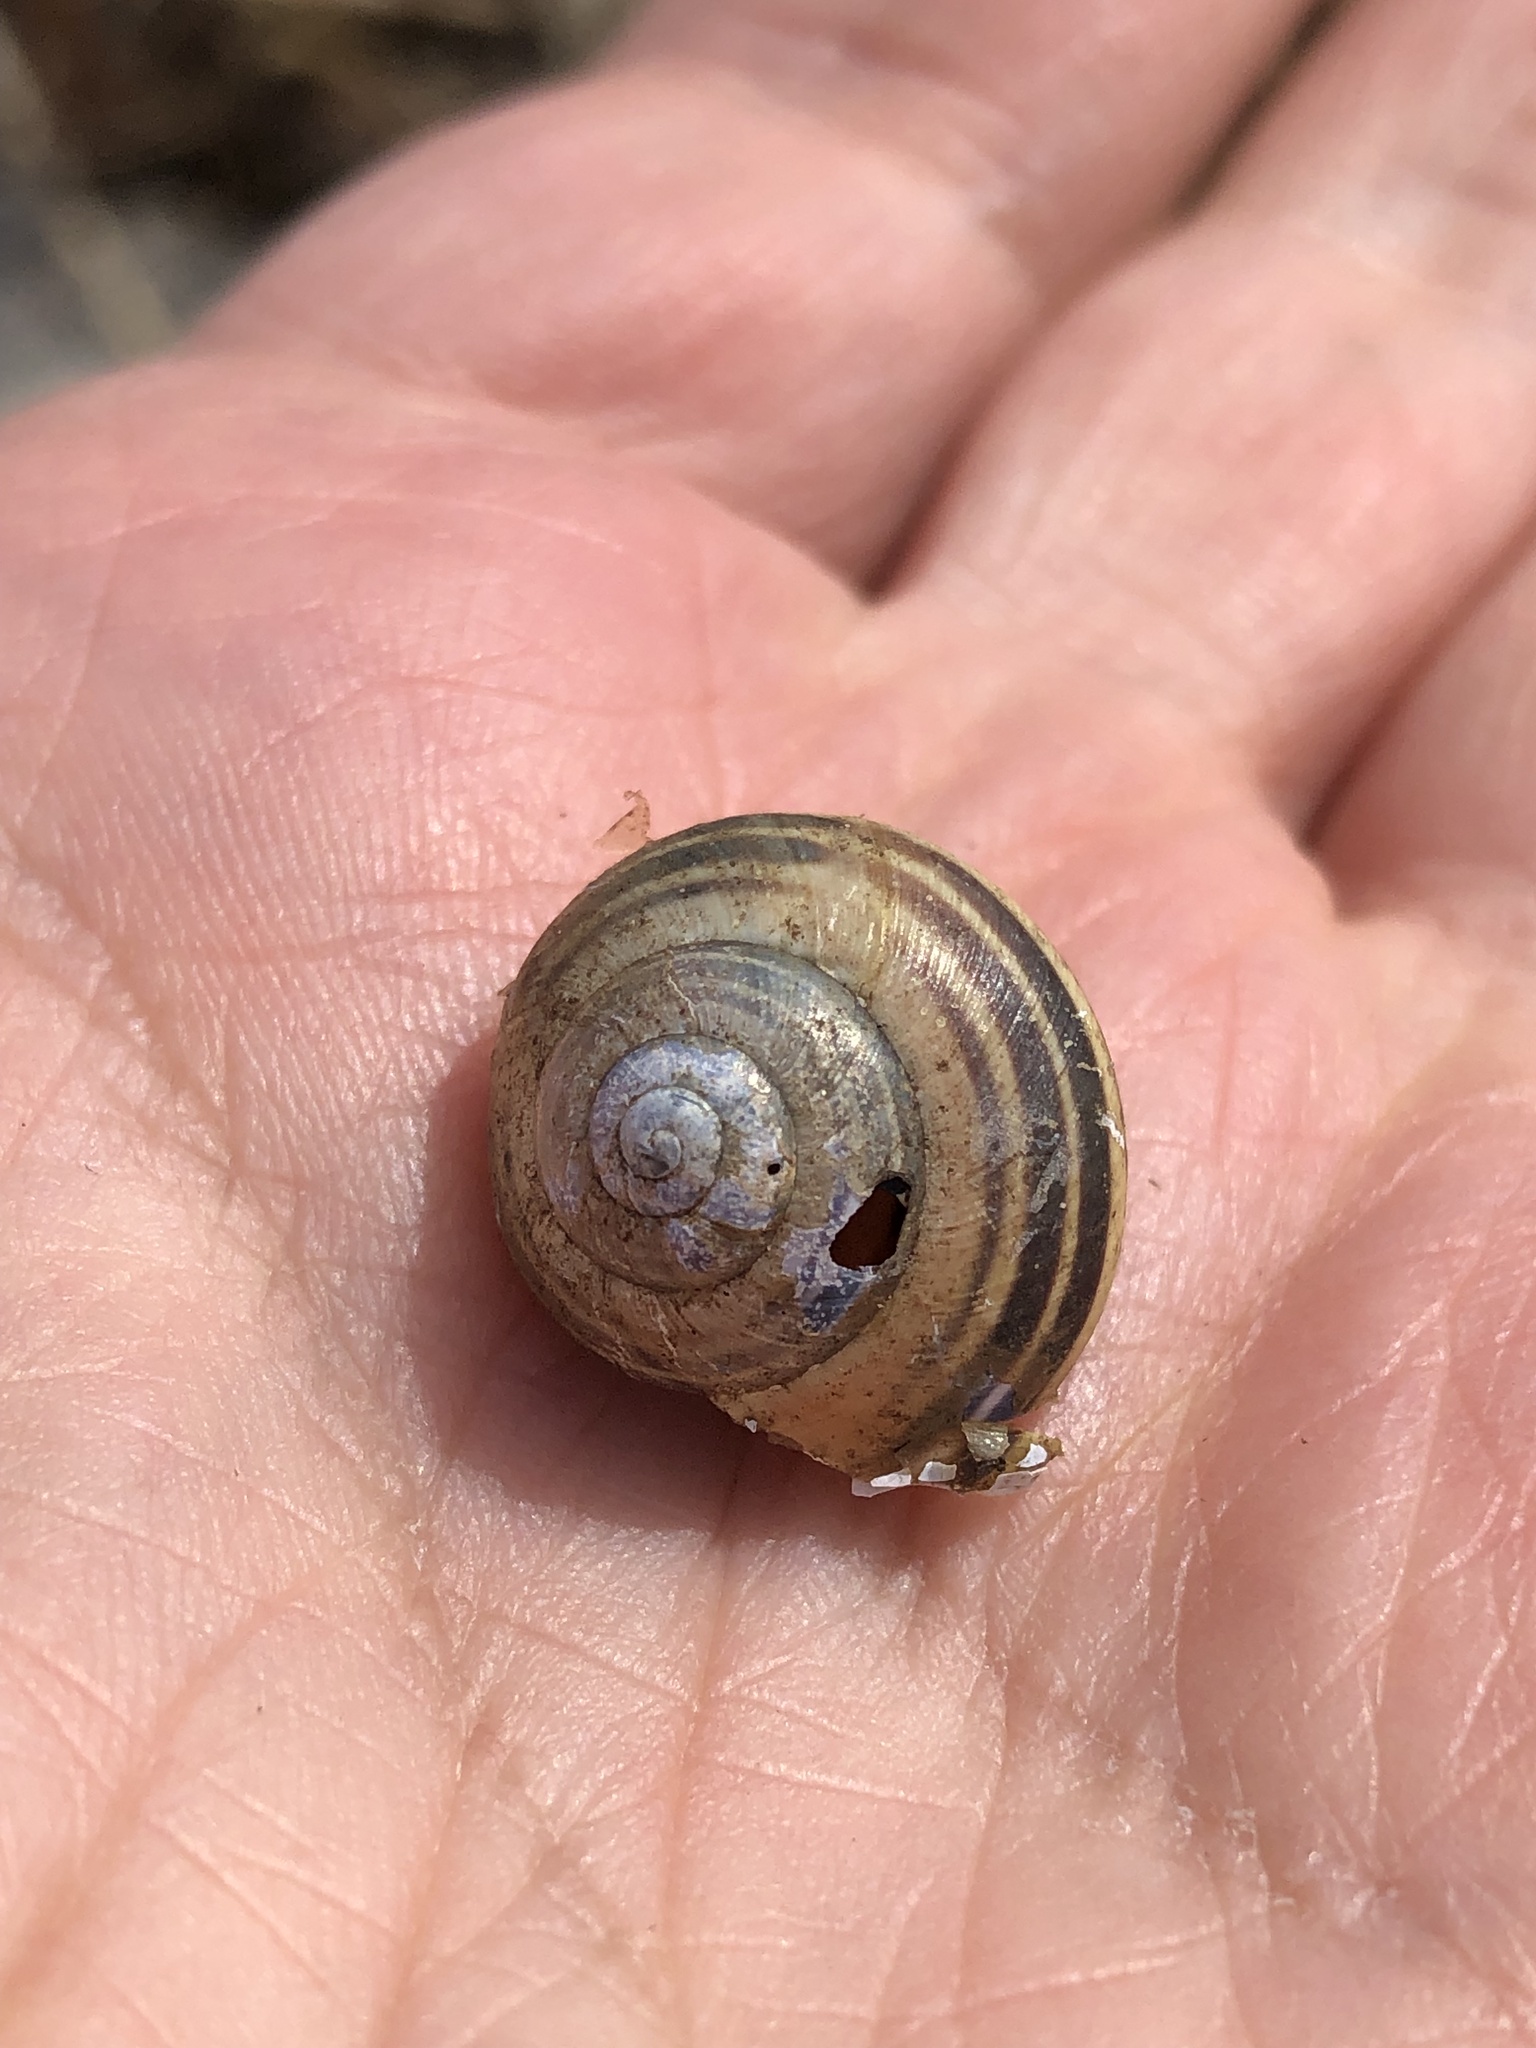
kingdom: Animalia
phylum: Mollusca
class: Gastropoda
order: Stylommatophora
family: Helicidae
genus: Cepaea
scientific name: Cepaea nemoralis
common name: Grovesnail
